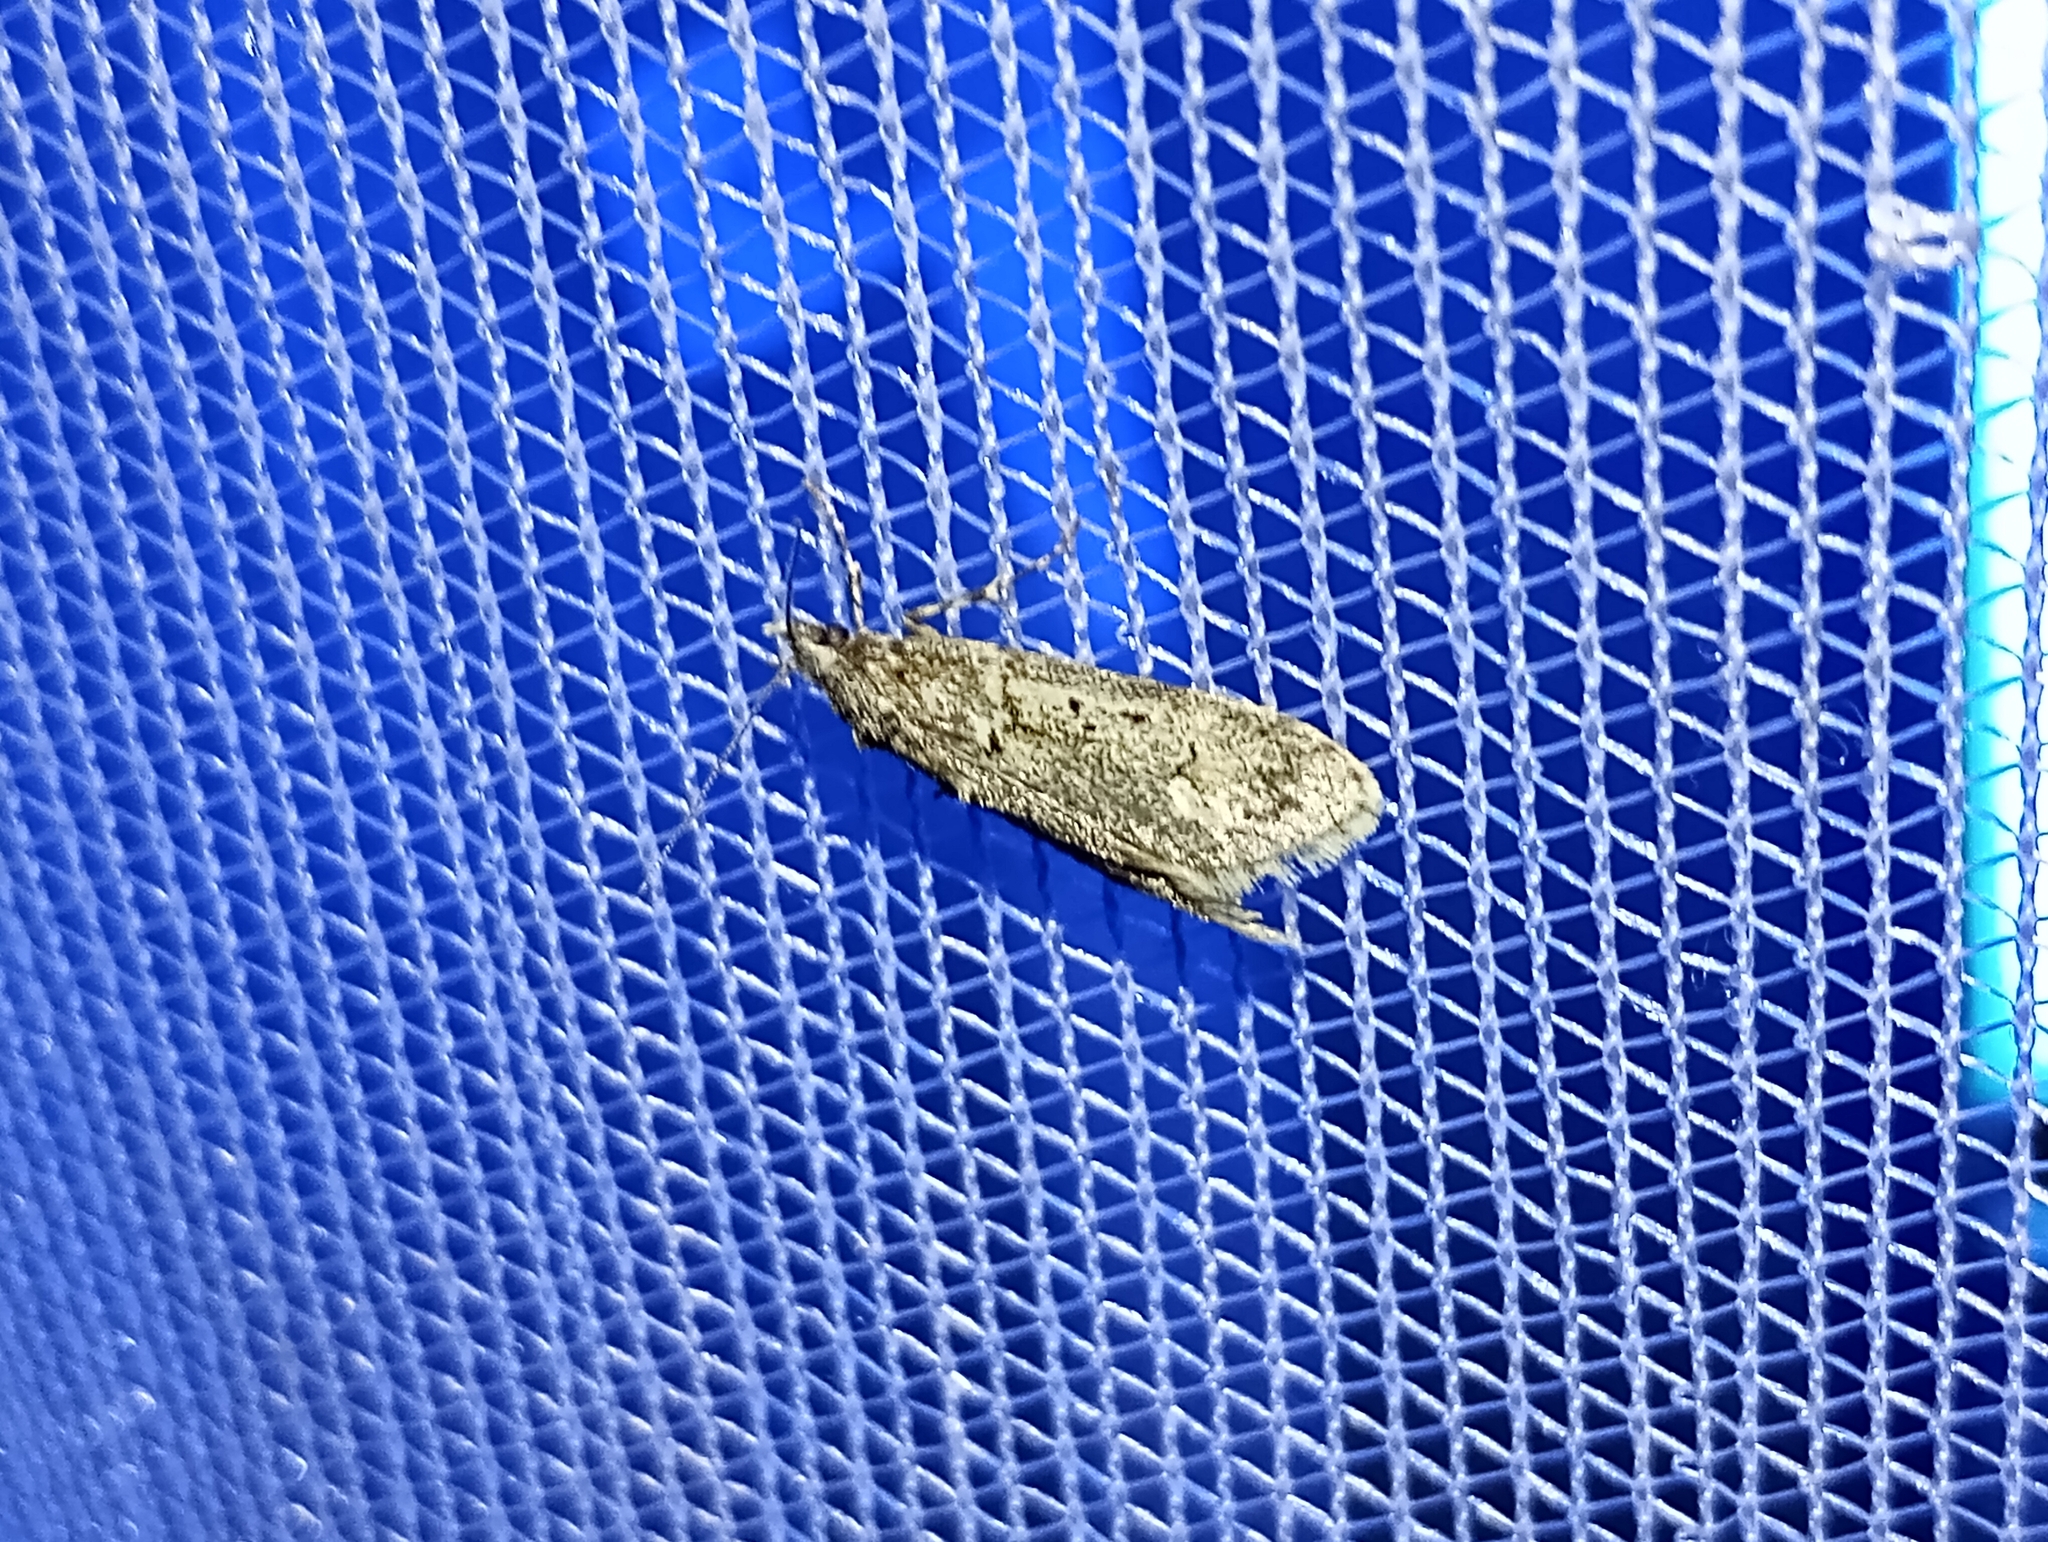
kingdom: Animalia
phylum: Arthropoda
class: Insecta
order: Lepidoptera
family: Lypusidae
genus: Diurnea
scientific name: Diurnea fagella
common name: March tubic
